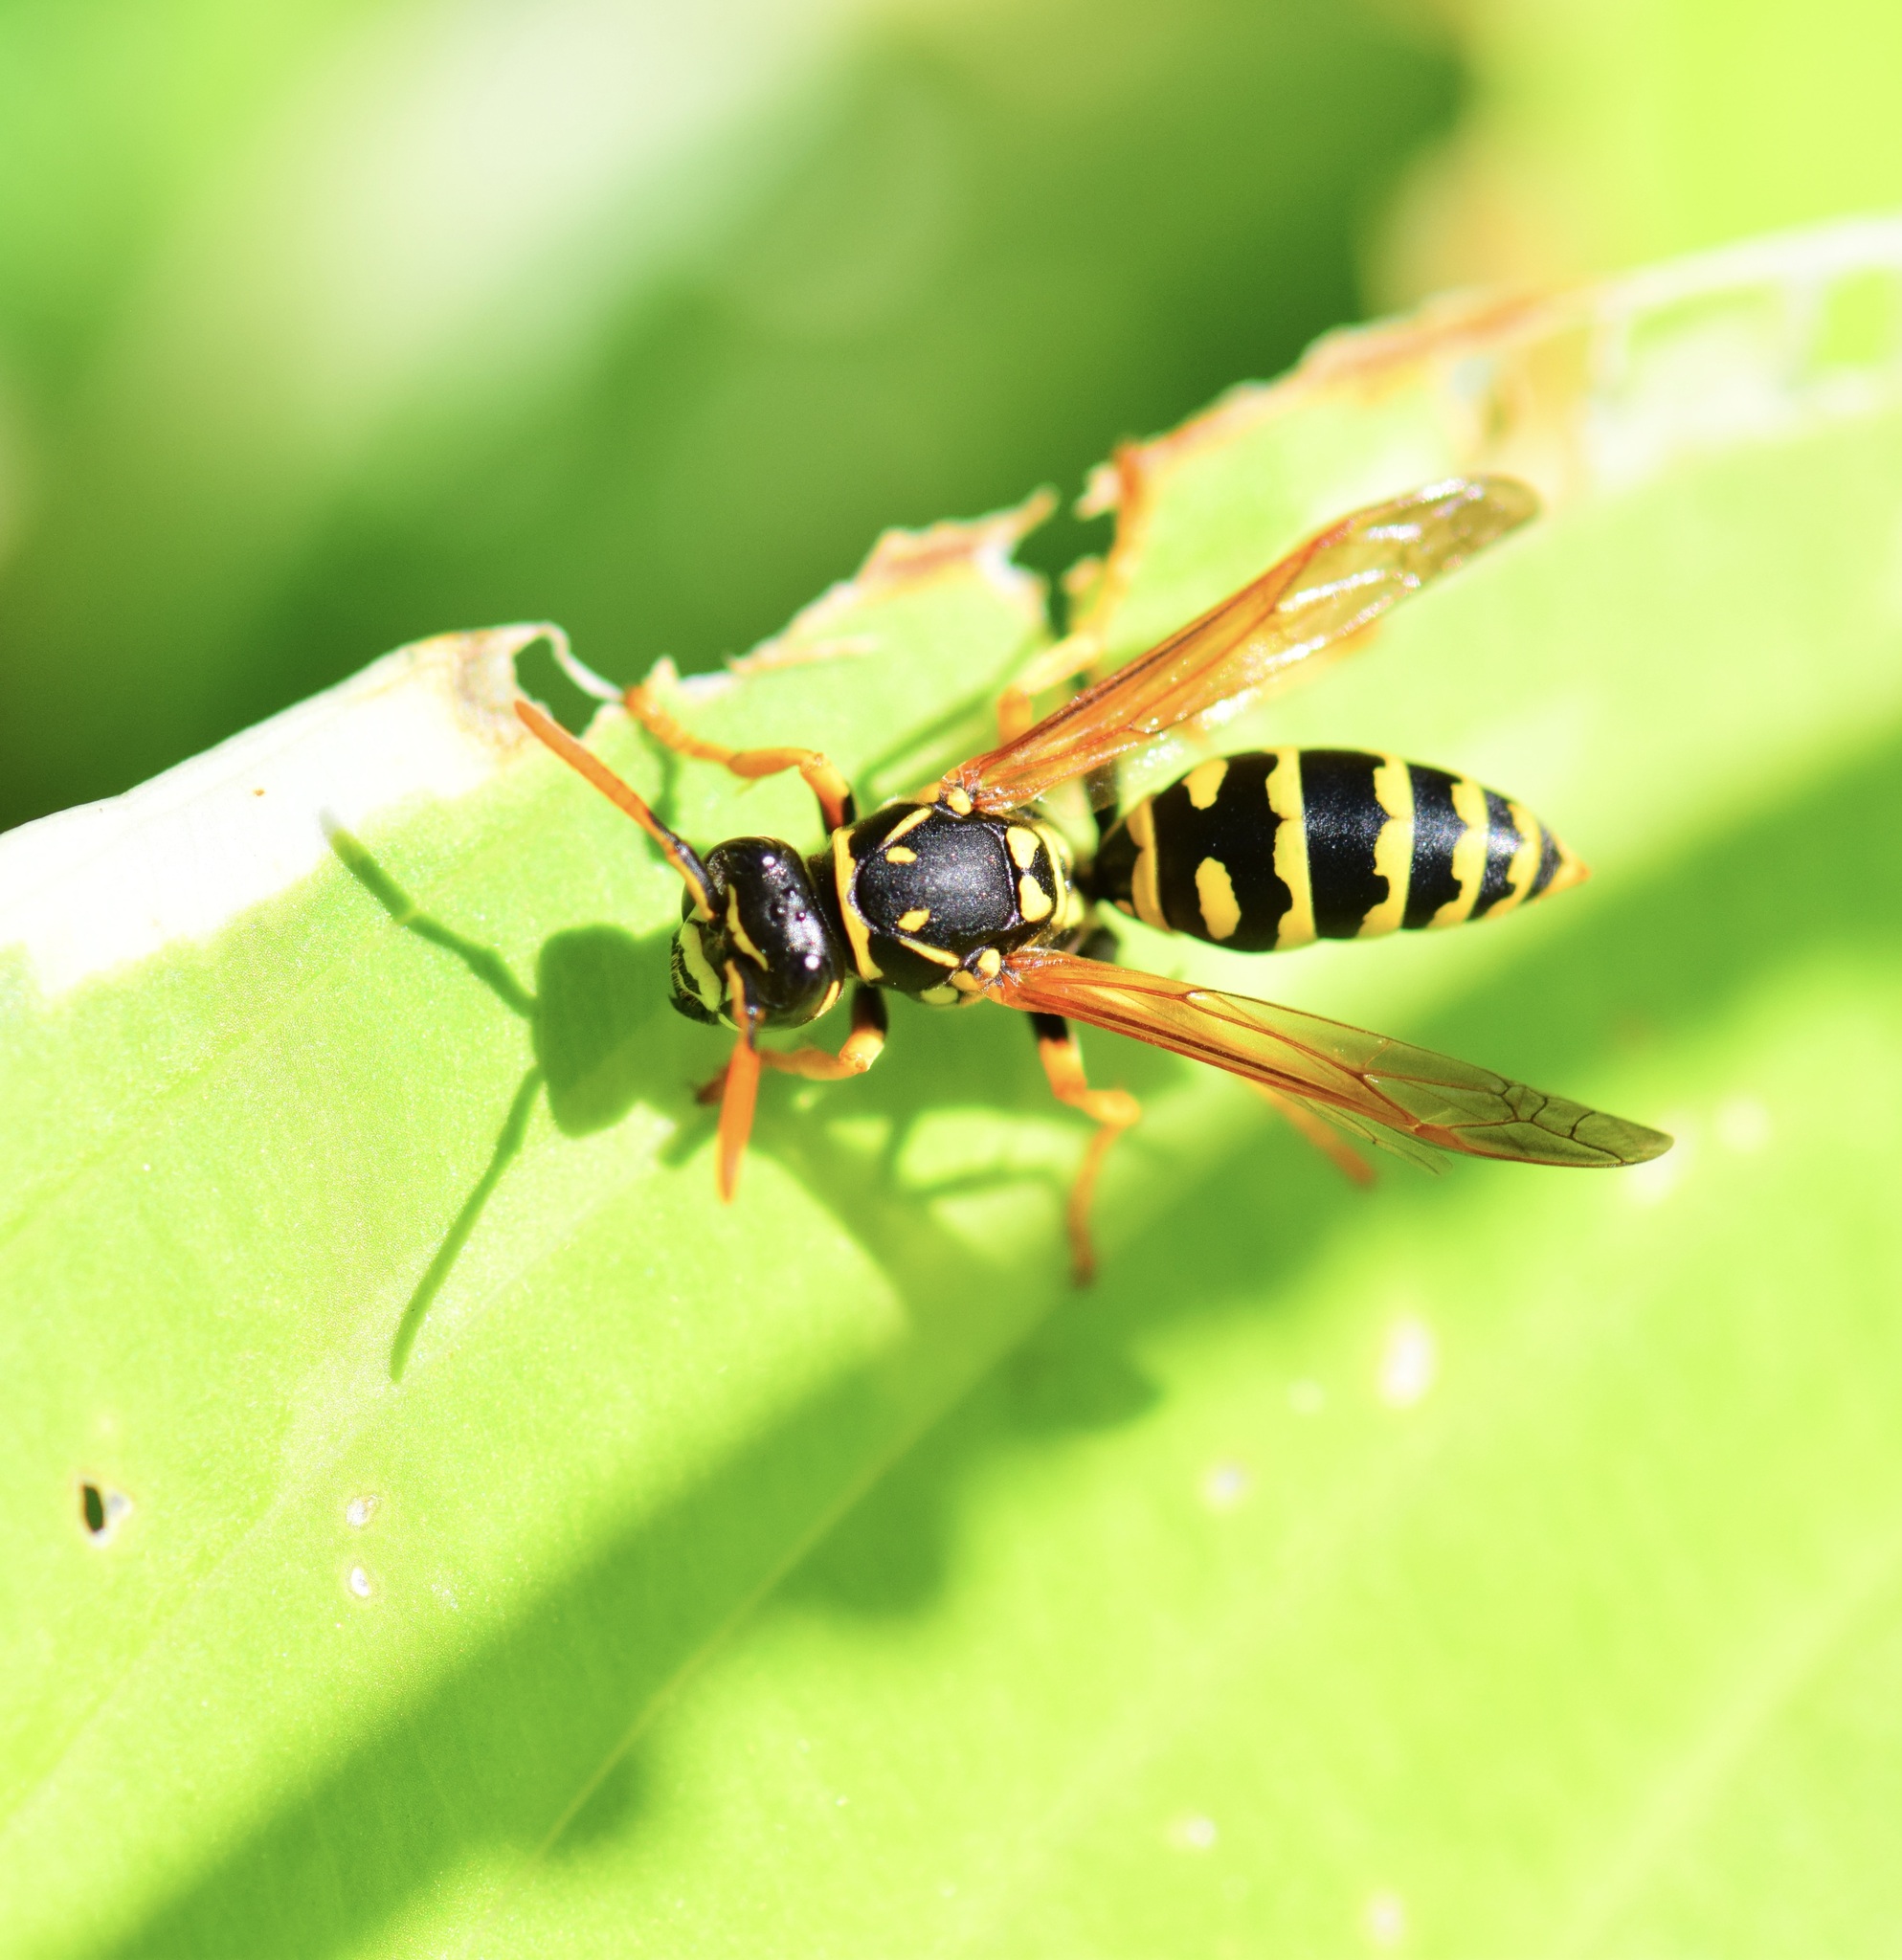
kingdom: Animalia
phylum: Arthropoda
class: Insecta
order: Hymenoptera
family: Eumenidae
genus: Polistes
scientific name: Polistes dominula
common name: Paper wasp
